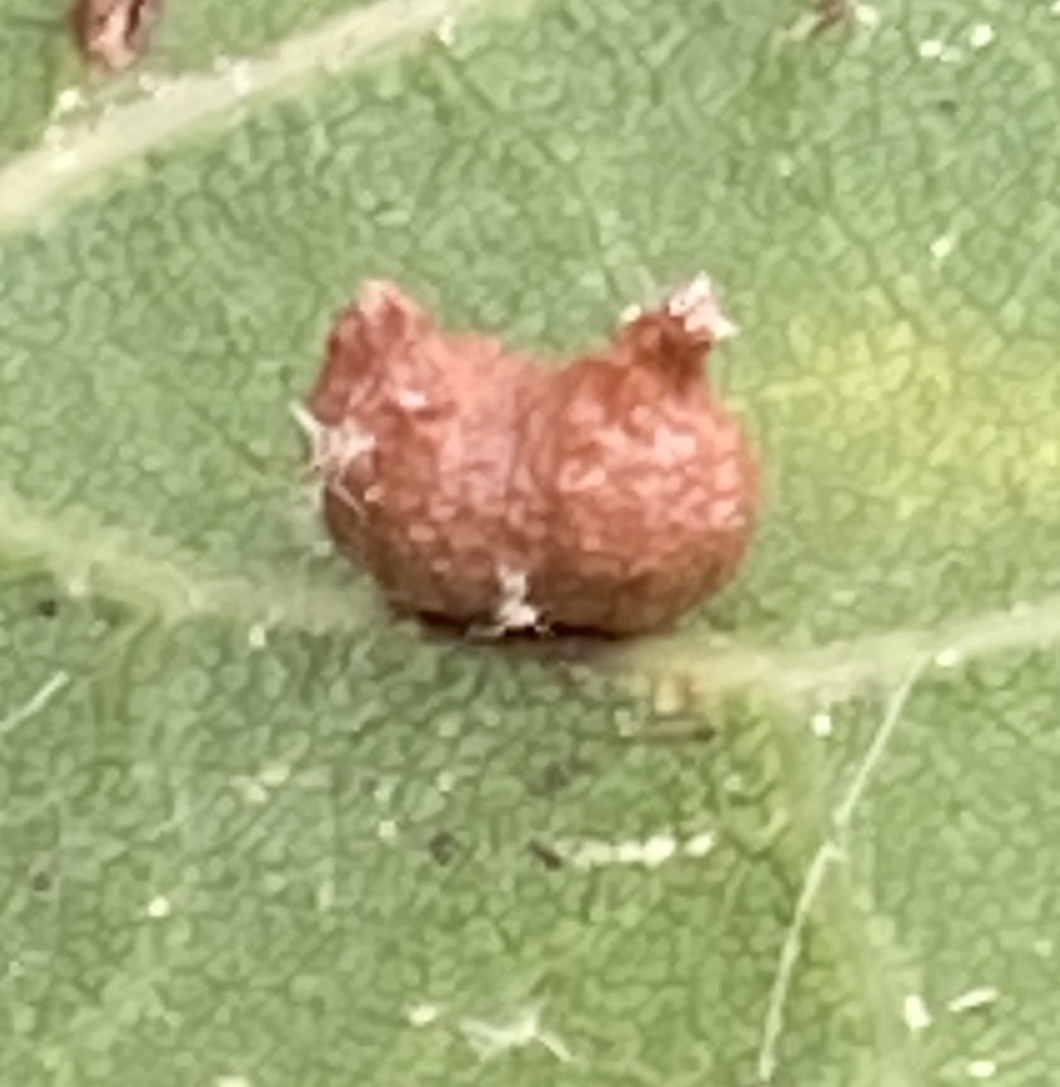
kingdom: Animalia
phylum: Arthropoda
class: Insecta
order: Hymenoptera
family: Cynipidae
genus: Dryocosmus
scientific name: Dryocosmus
